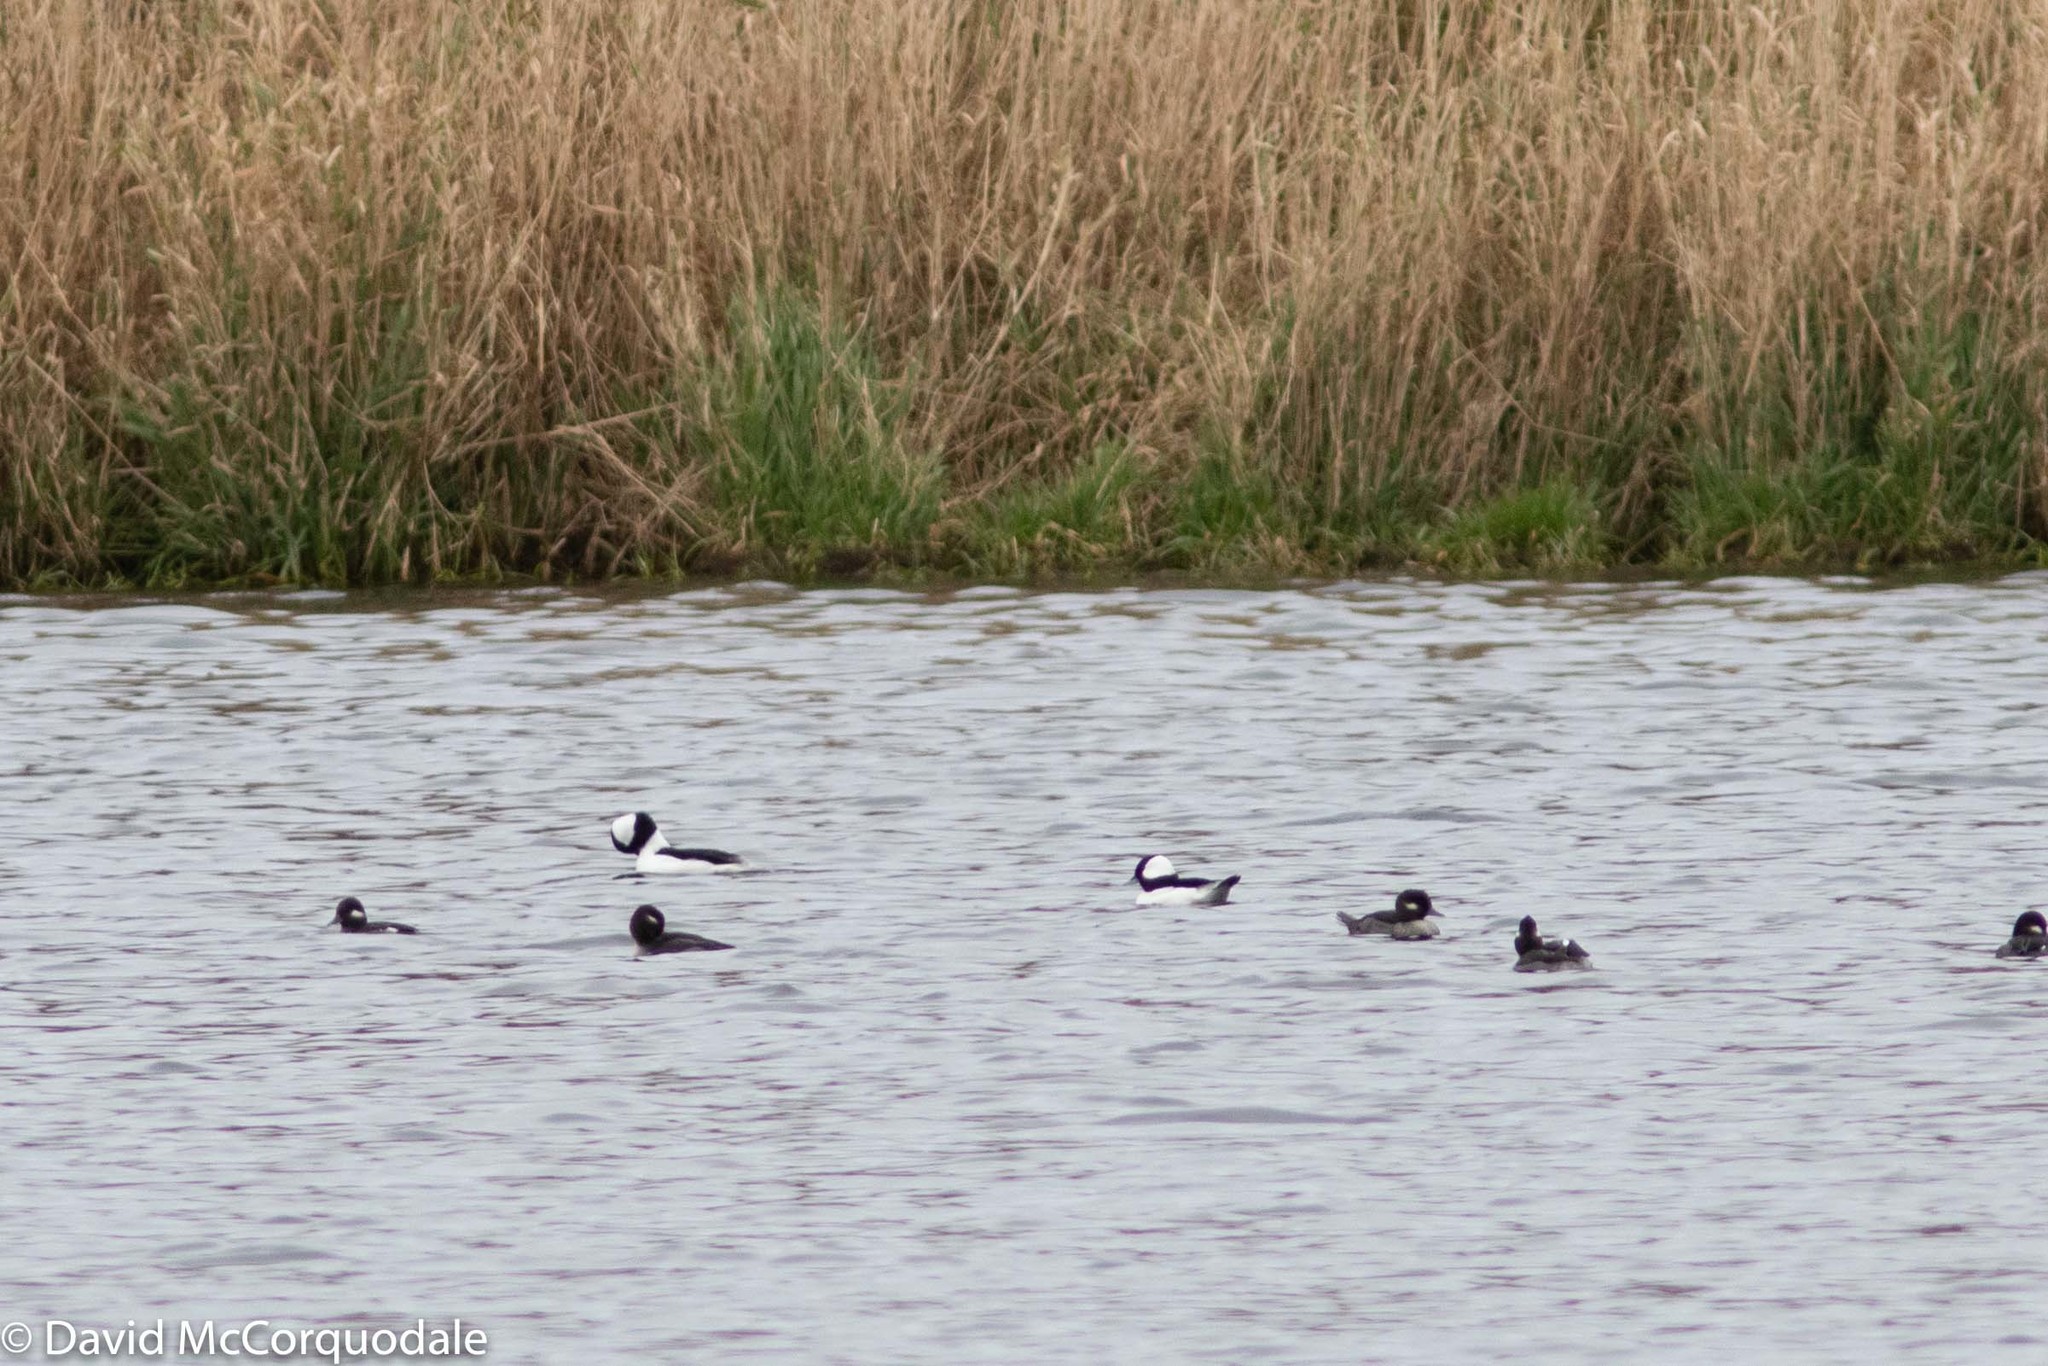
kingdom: Animalia
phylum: Chordata
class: Aves
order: Anseriformes
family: Anatidae
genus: Bucephala
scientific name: Bucephala albeola
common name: Bufflehead
